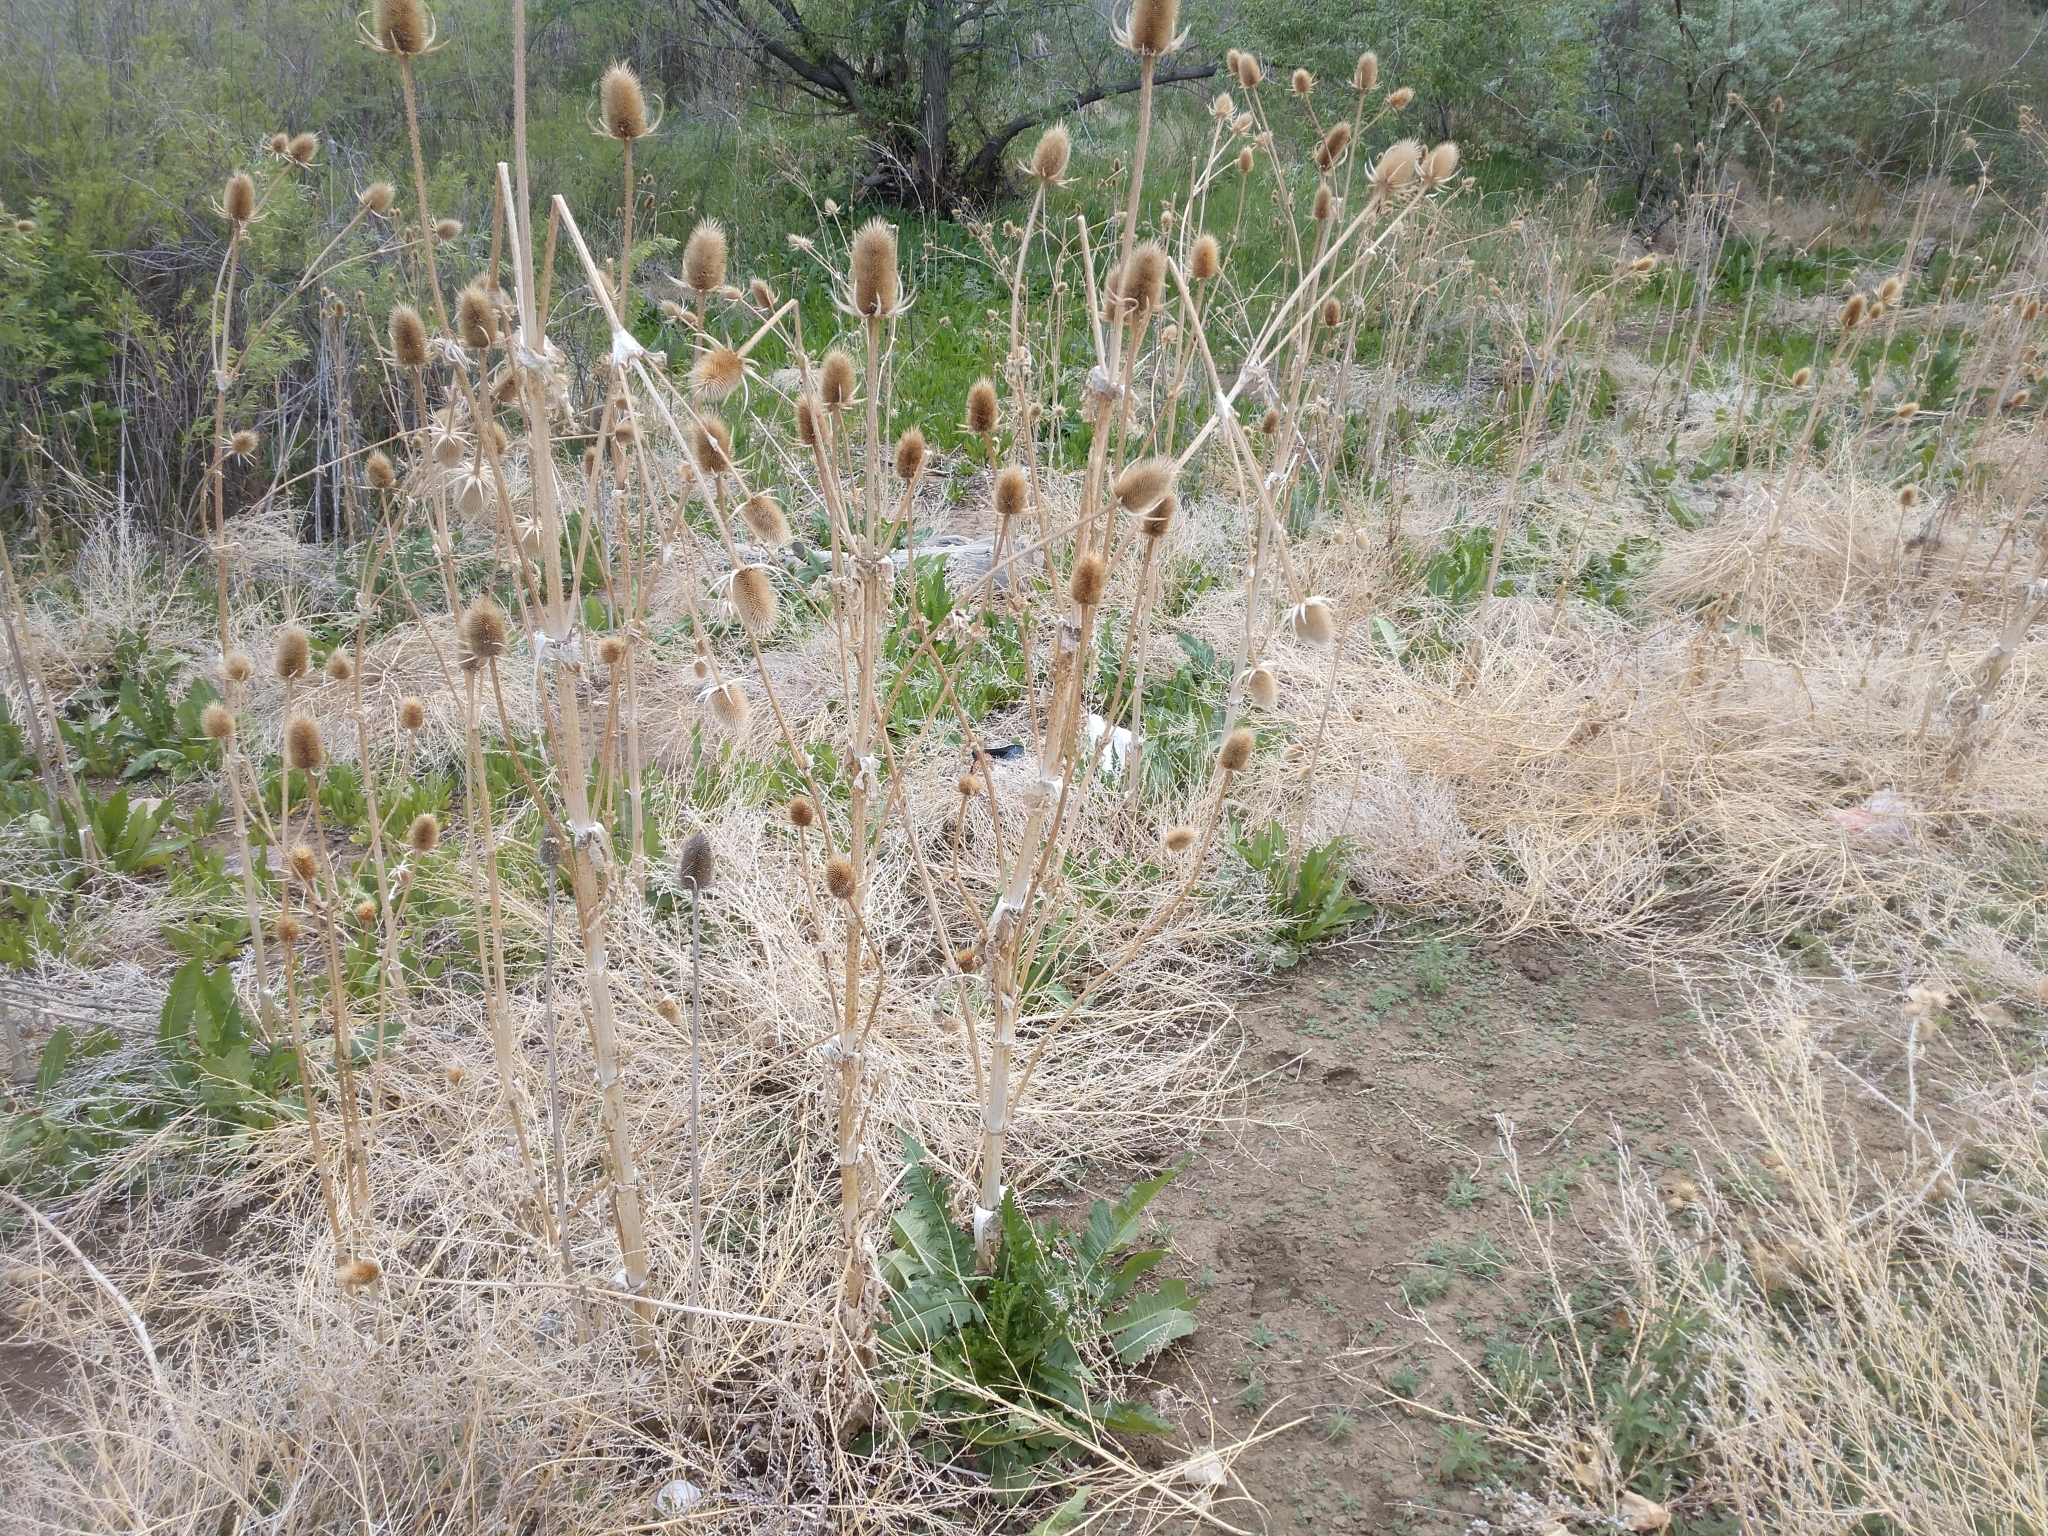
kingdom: Plantae
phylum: Tracheophyta
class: Magnoliopsida
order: Dipsacales
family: Caprifoliaceae
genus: Dipsacus
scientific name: Dipsacus laciniatus
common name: Cut-leaved teasel
